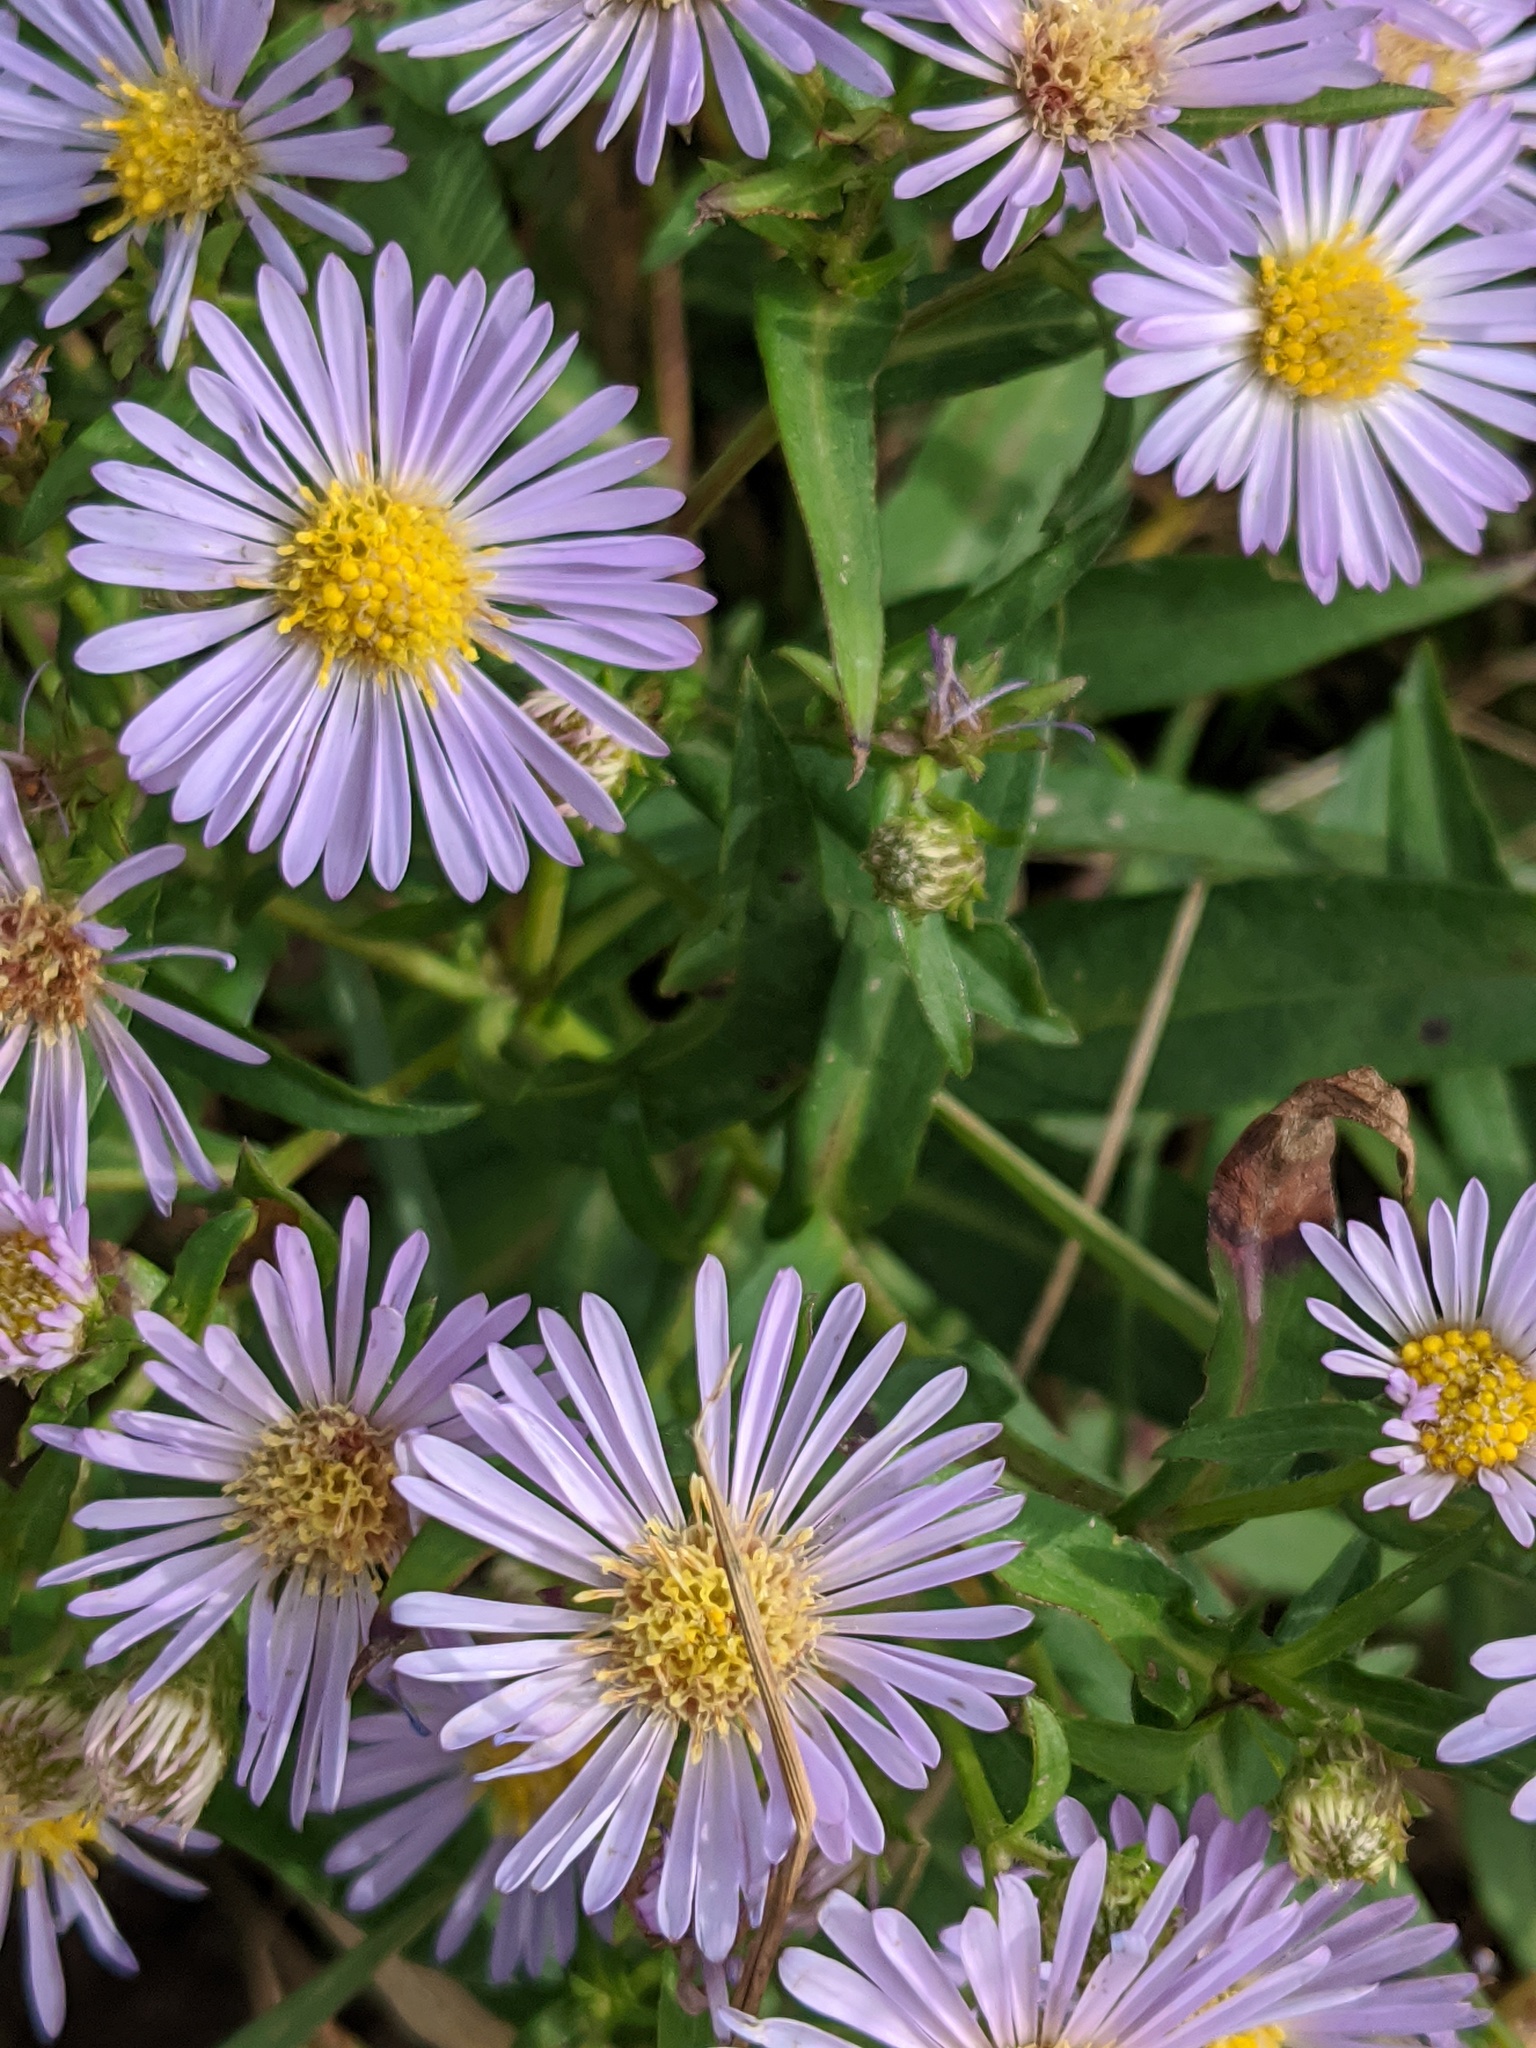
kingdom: Plantae
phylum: Tracheophyta
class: Magnoliopsida
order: Asterales
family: Asteraceae
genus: Symphyotrichum
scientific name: Symphyotrichum novi-belgii
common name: Michaelmas daisy
